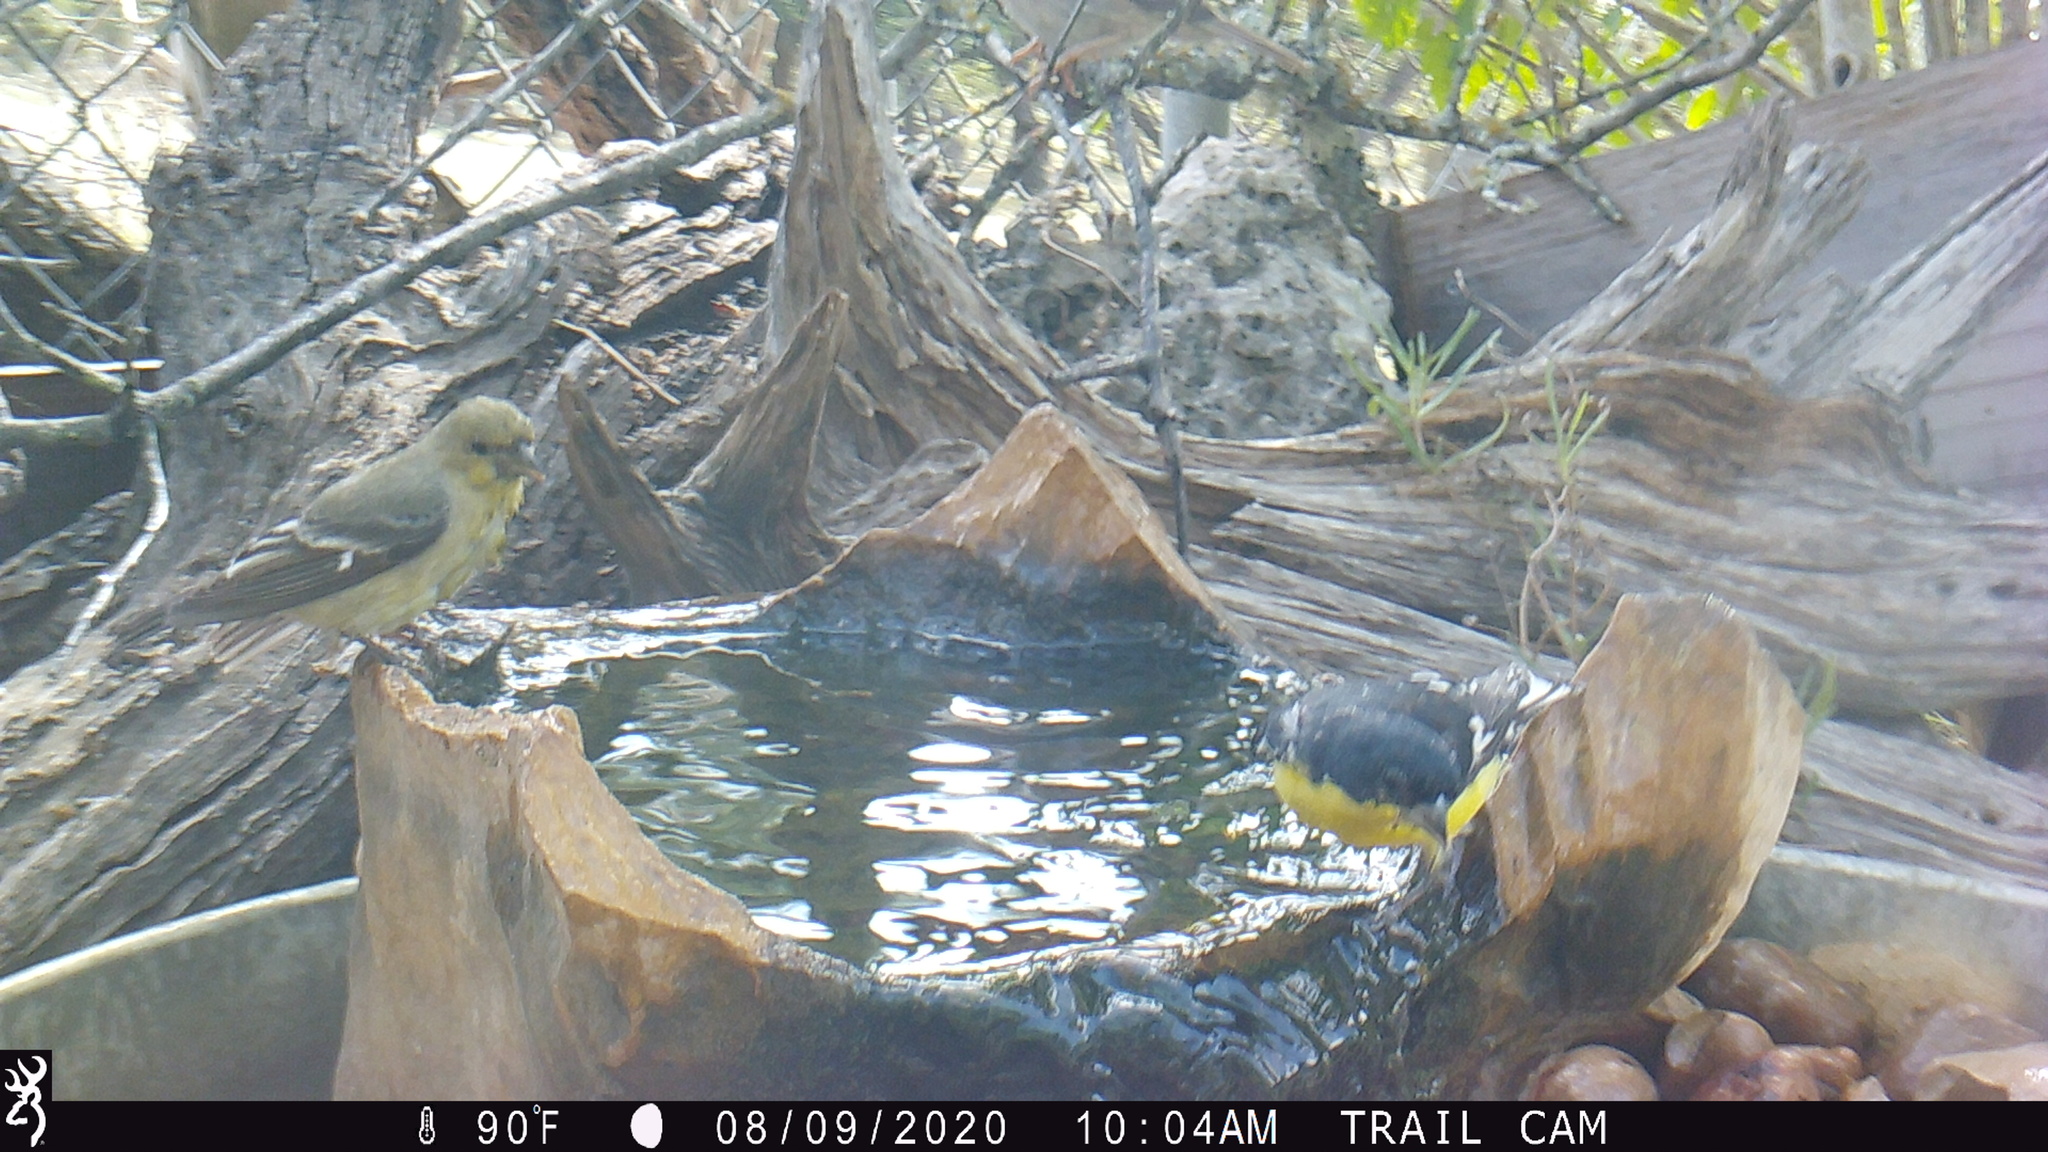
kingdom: Animalia
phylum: Chordata
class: Aves
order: Passeriformes
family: Fringillidae
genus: Spinus
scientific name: Spinus psaltria
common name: Lesser goldfinch
